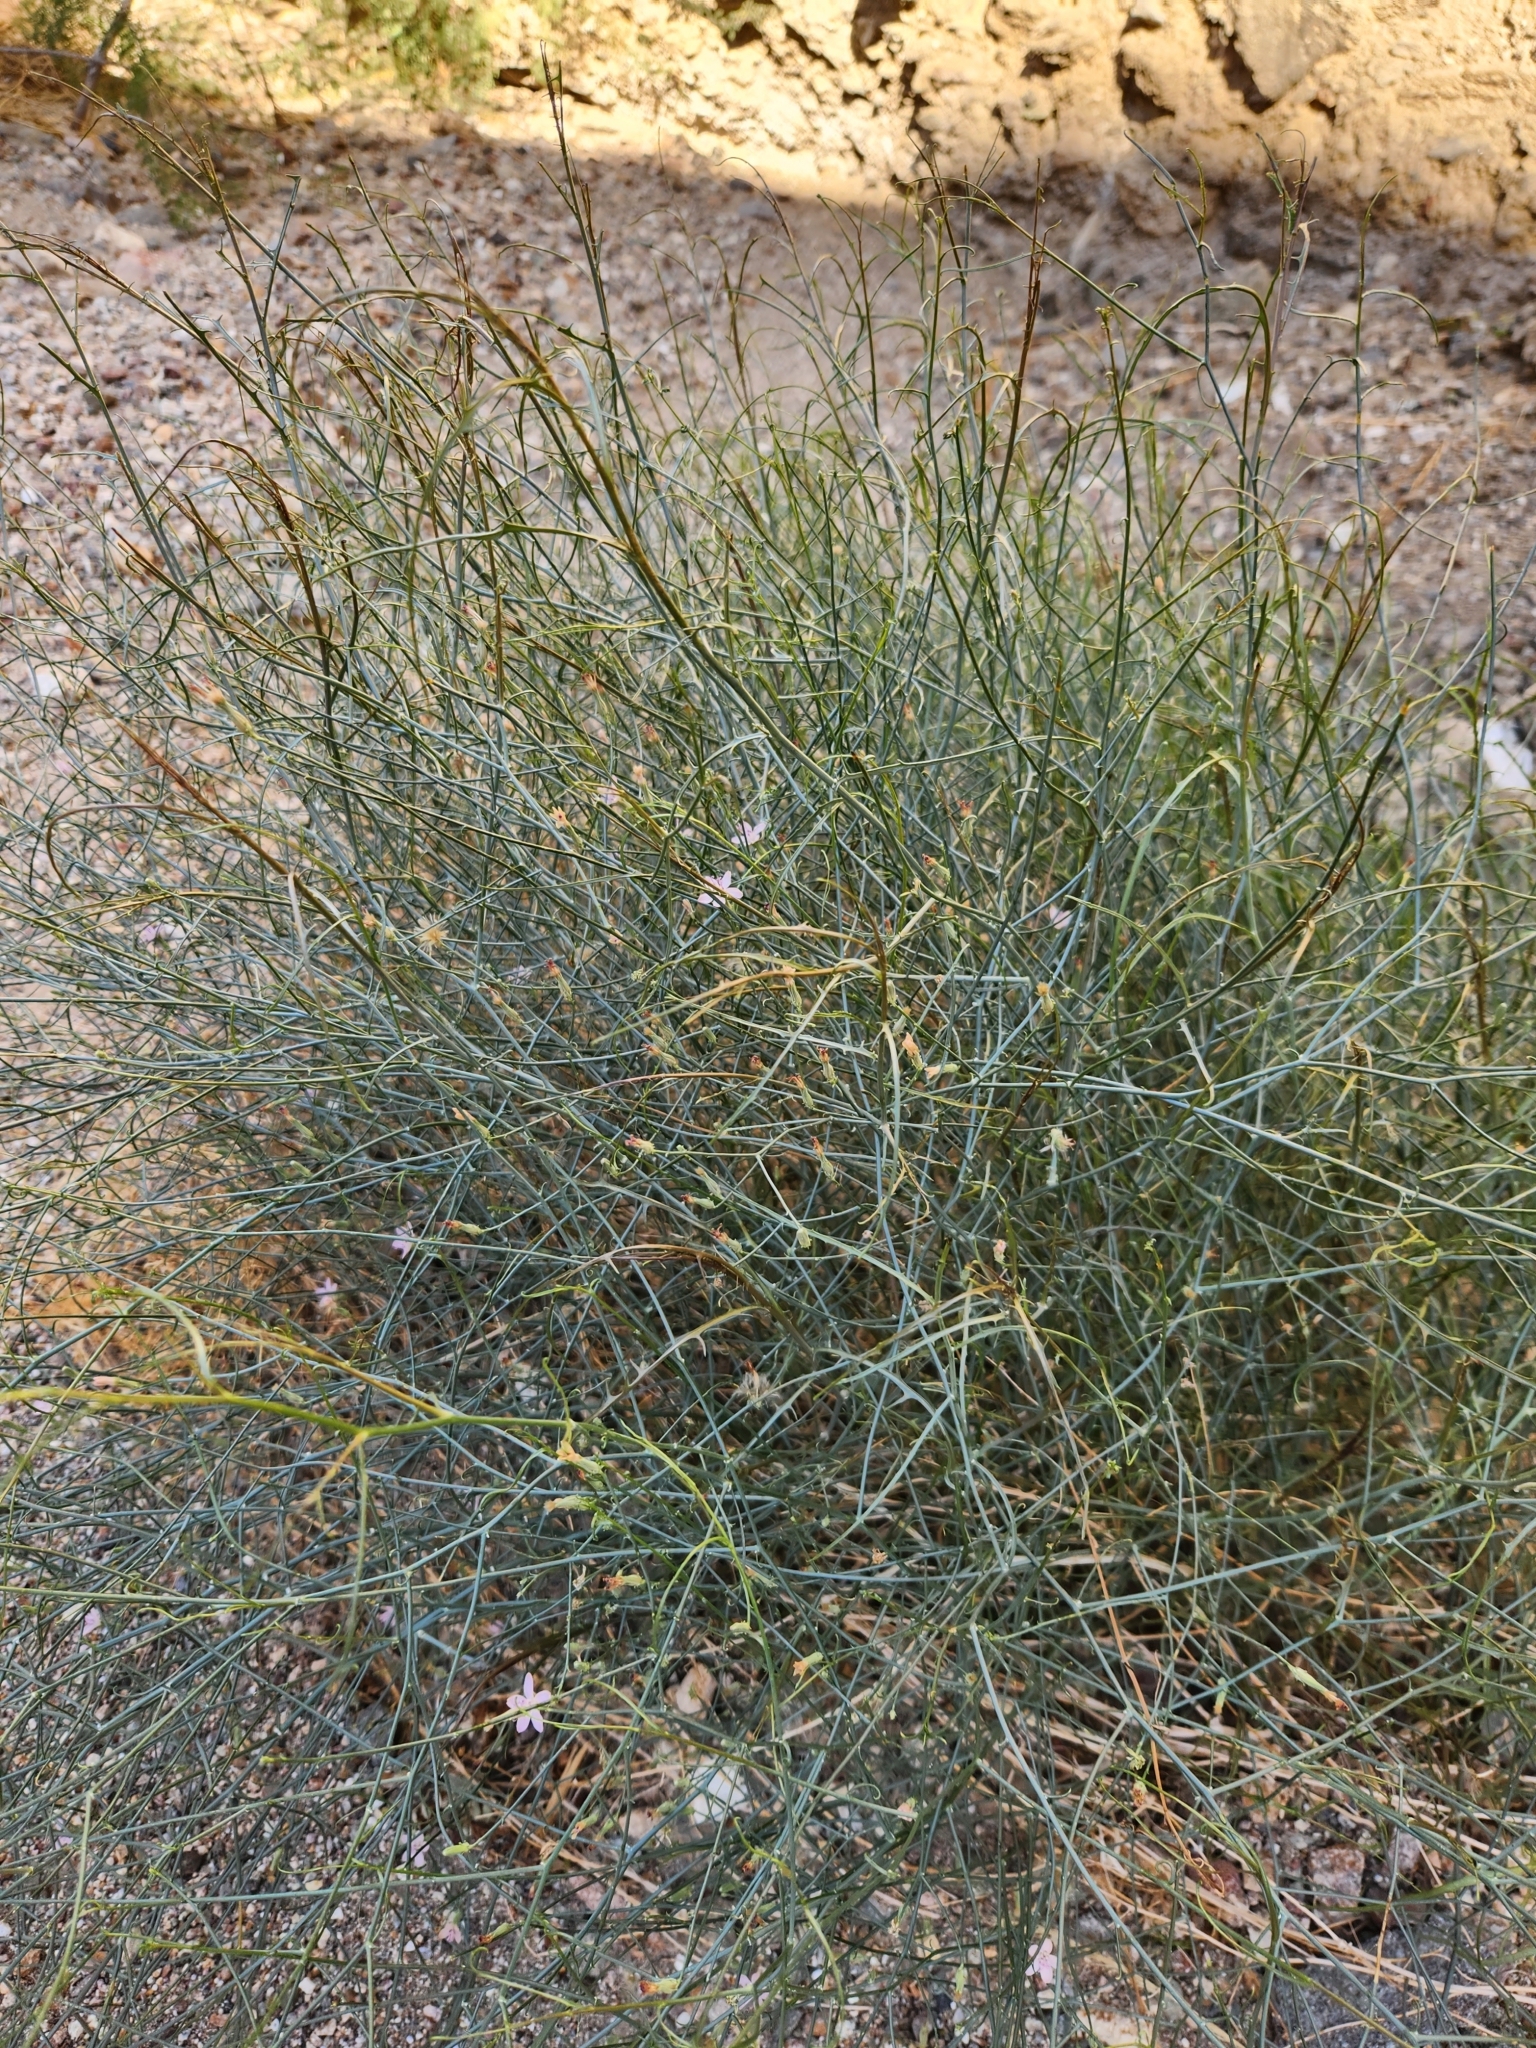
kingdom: Plantae
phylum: Tracheophyta
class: Magnoliopsida
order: Asterales
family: Asteraceae
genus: Stephanomeria
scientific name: Stephanomeria pauciflora
